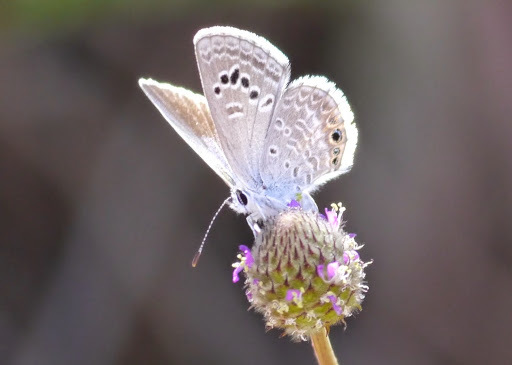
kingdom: Animalia
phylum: Arthropoda
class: Insecta
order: Lepidoptera
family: Lycaenidae
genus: Echinargus
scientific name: Echinargus isola
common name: Reakirt's blue
